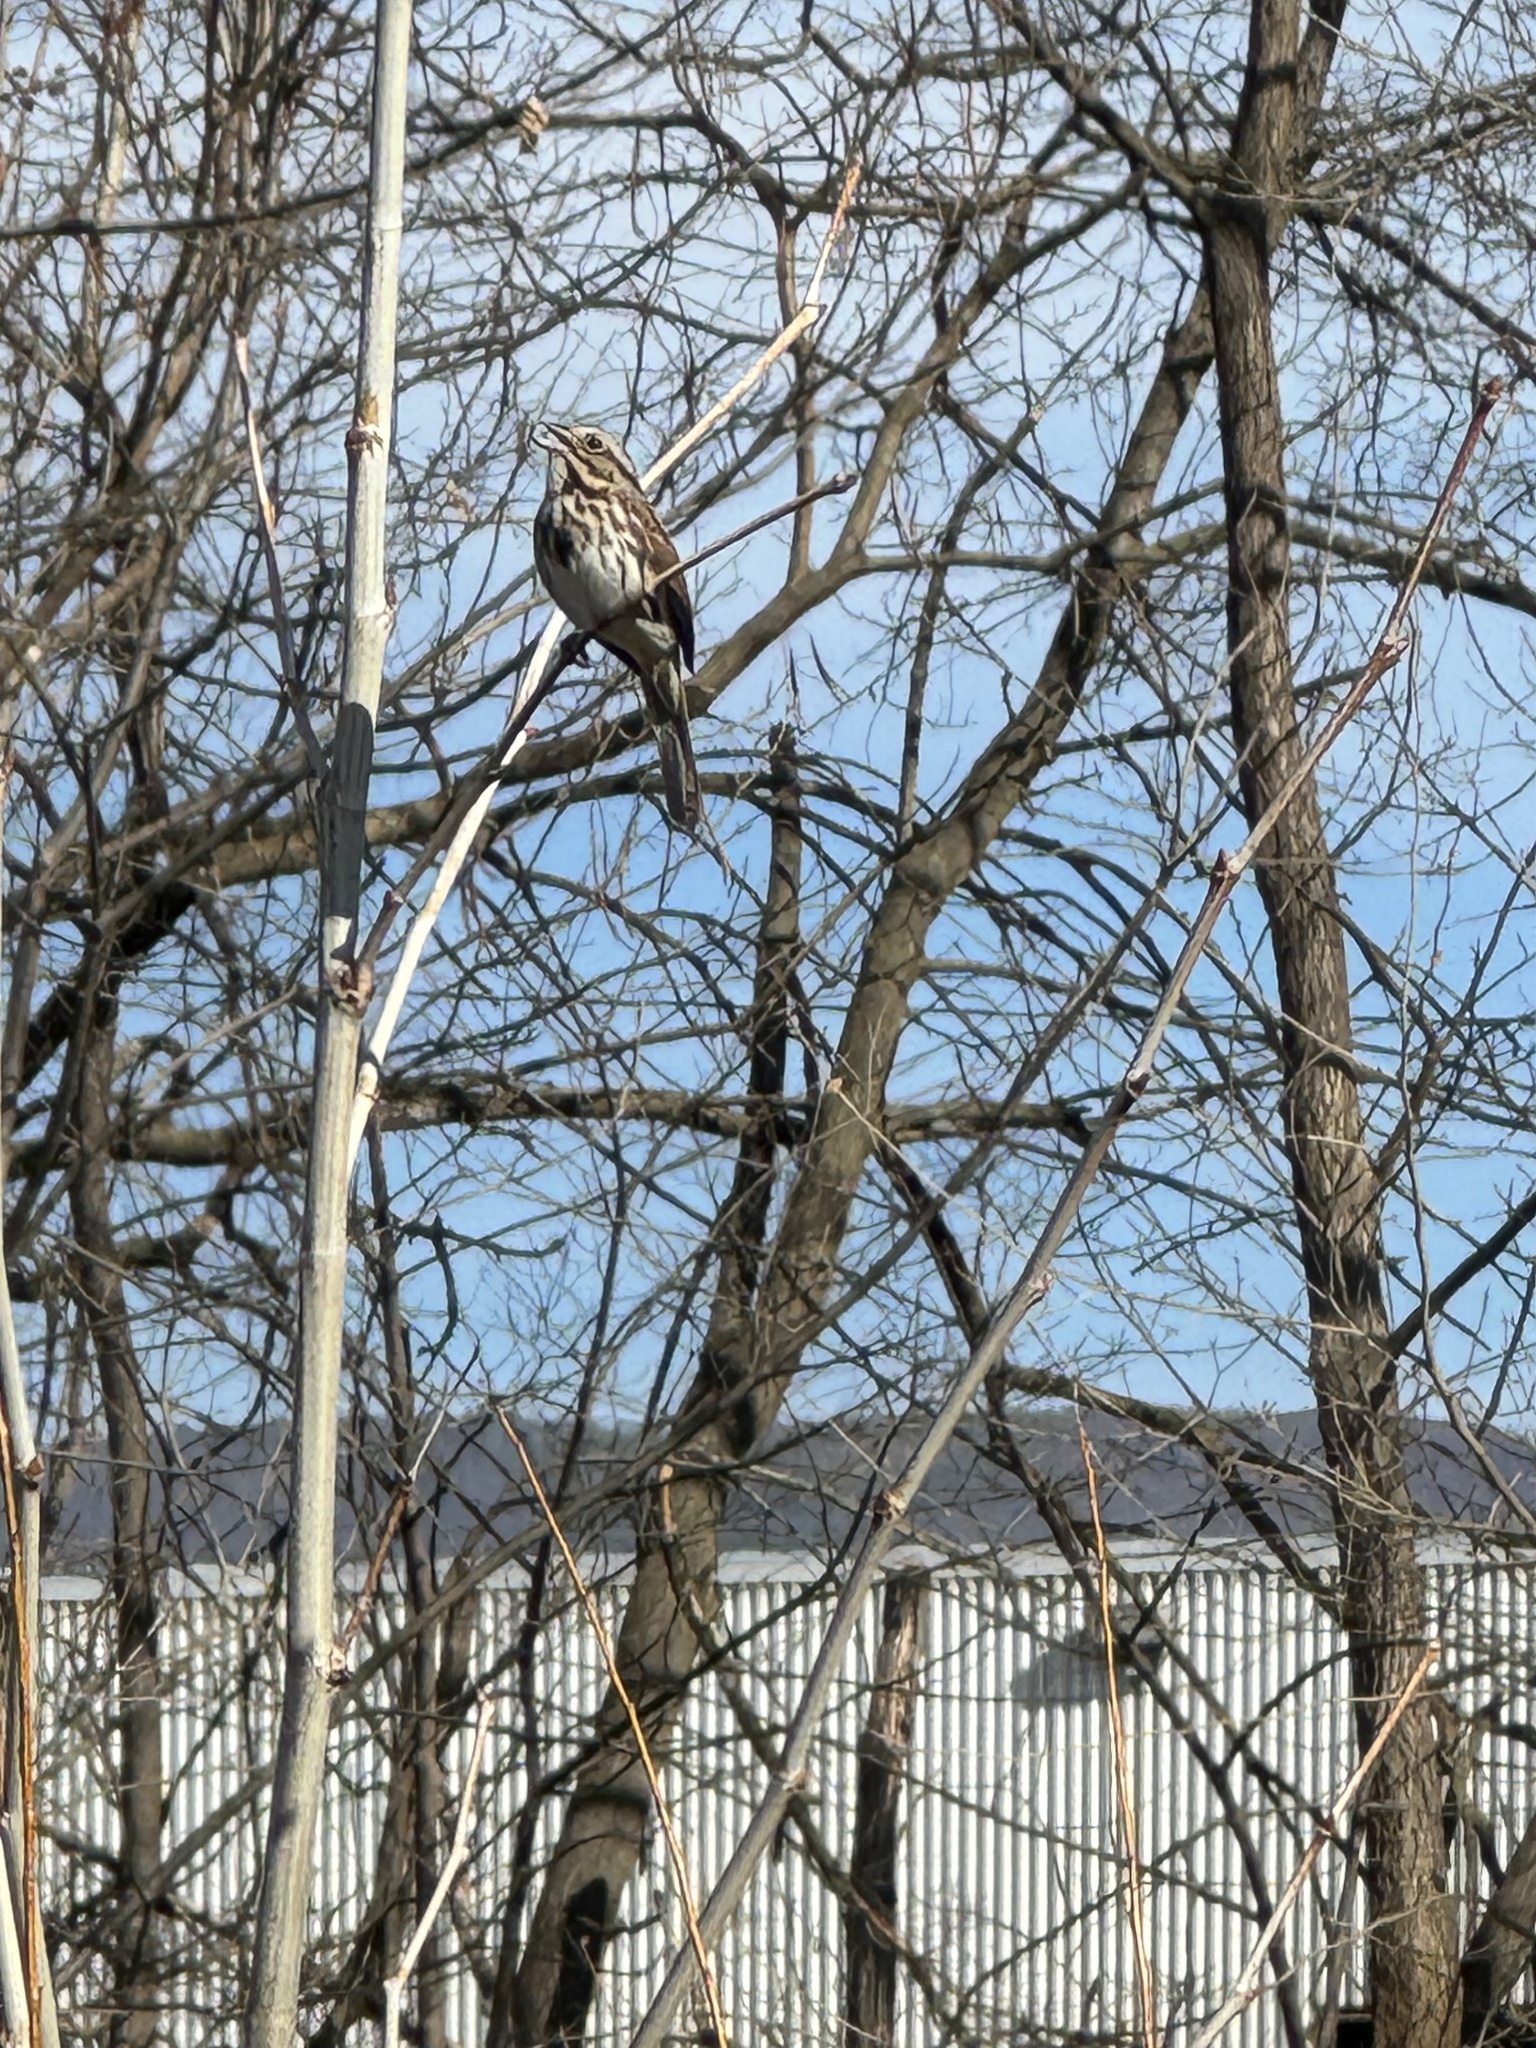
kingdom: Animalia
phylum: Chordata
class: Aves
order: Passeriformes
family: Passerellidae
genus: Melospiza
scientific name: Melospiza melodia
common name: Song sparrow
